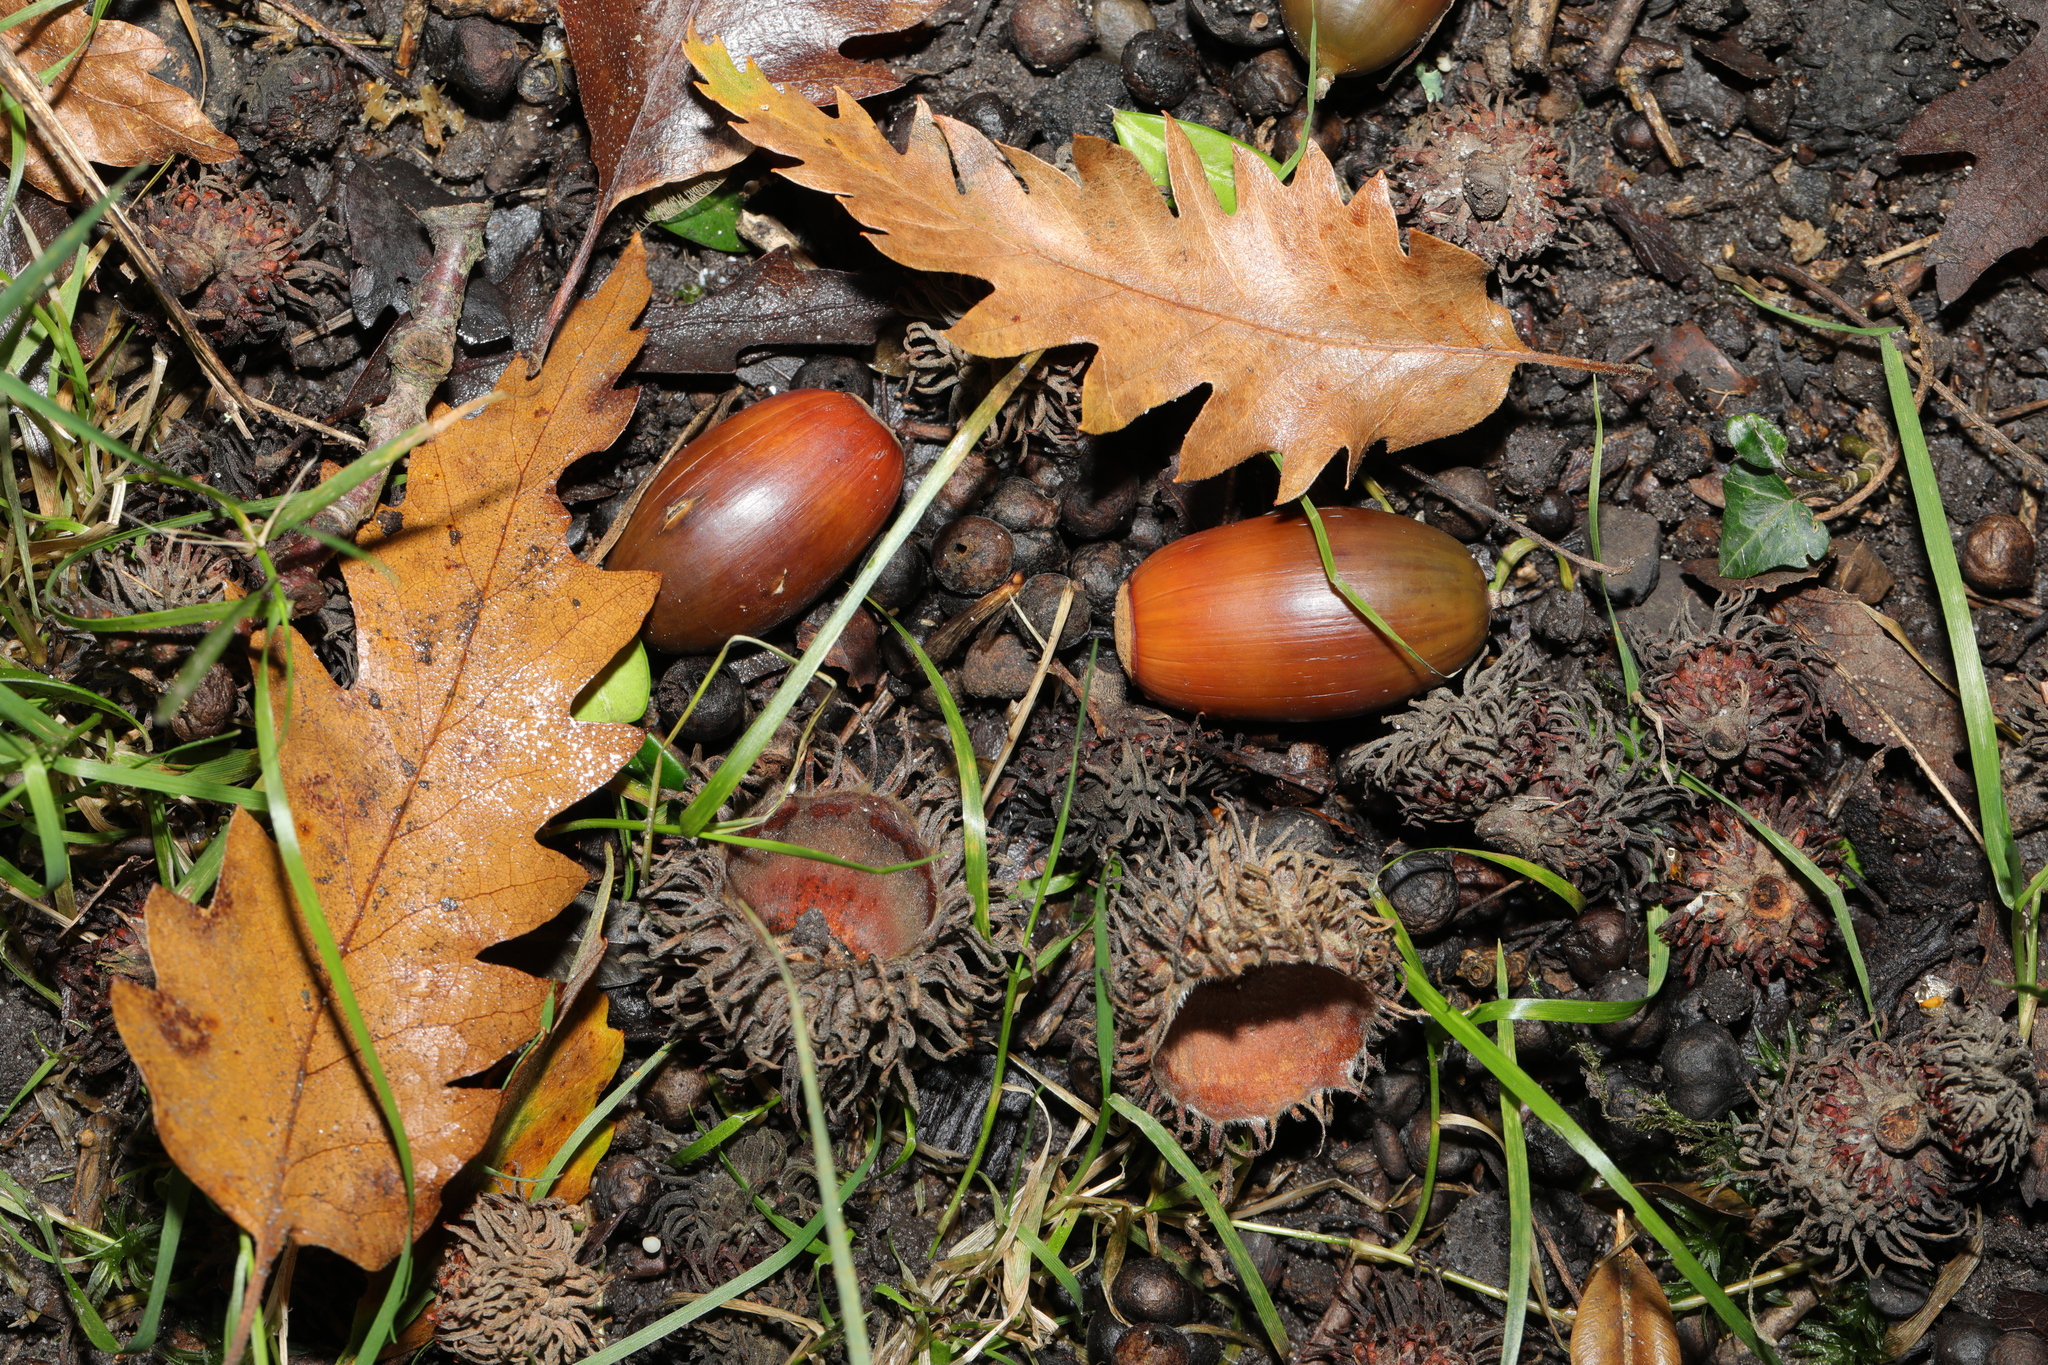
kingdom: Plantae
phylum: Tracheophyta
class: Magnoliopsida
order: Fagales
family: Fagaceae
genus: Quercus
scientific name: Quercus cerris
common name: Turkey oak
